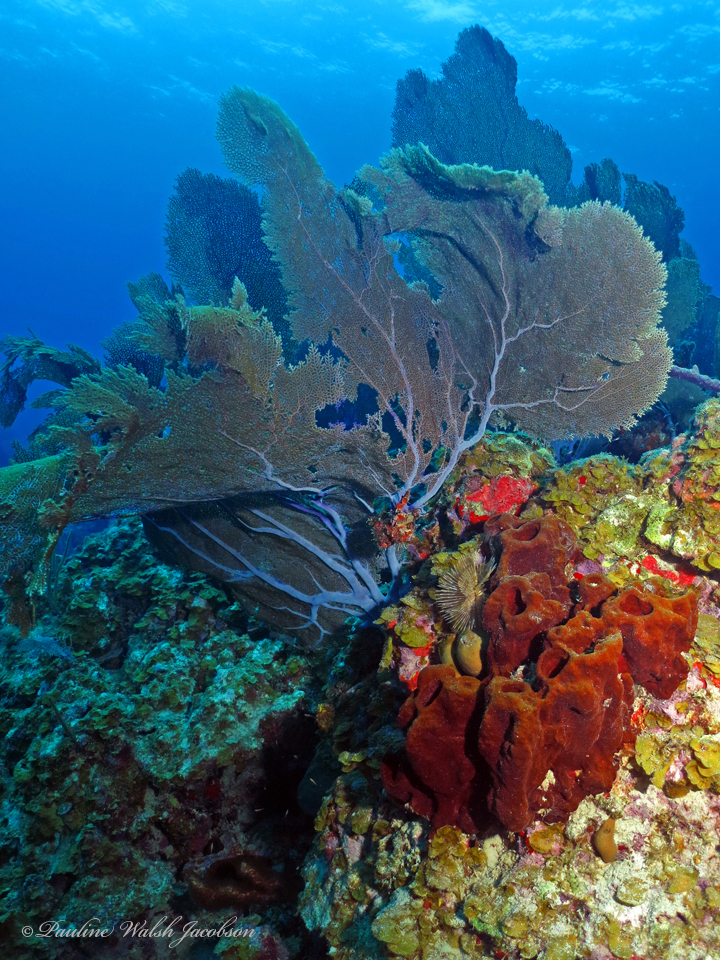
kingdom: Animalia
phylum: Cnidaria
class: Anthozoa
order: Malacalcyonacea
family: Gorgoniidae
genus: Gorgonia
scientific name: Gorgonia ventalina
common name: Common sea fan
